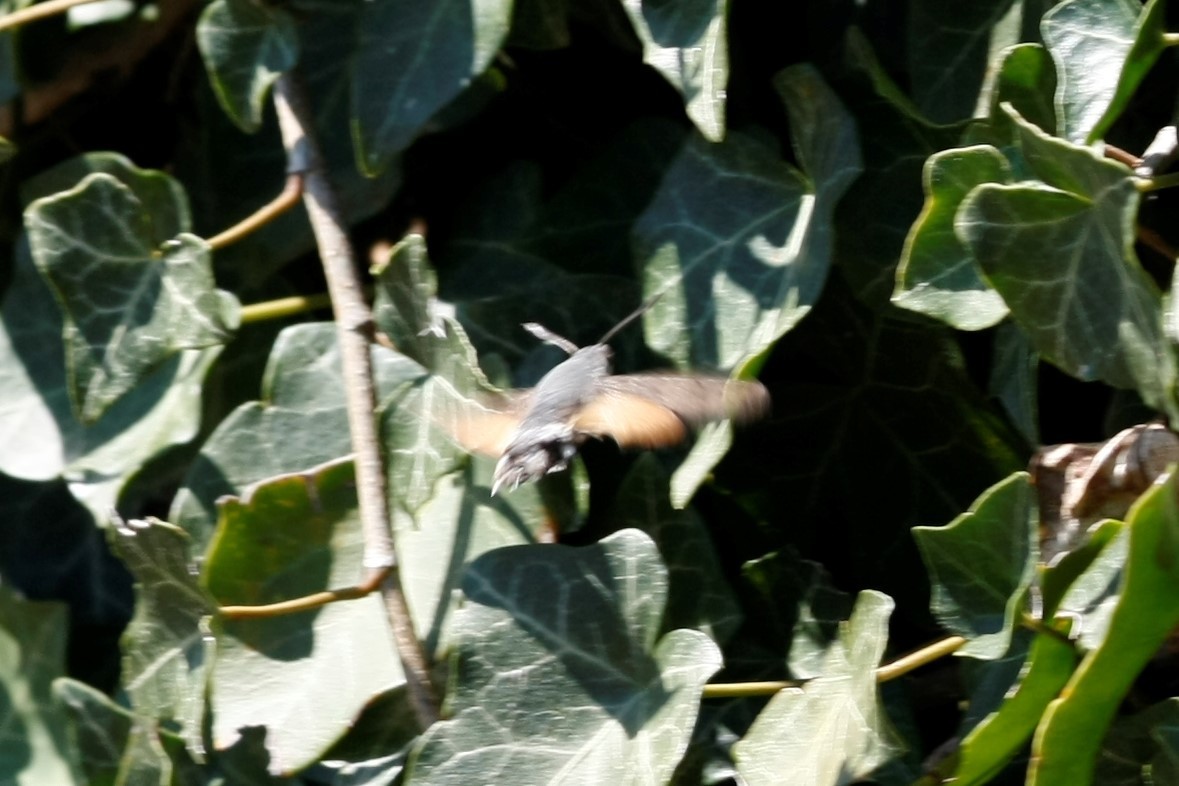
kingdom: Animalia
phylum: Arthropoda
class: Insecta
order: Lepidoptera
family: Sphingidae
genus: Macroglossum
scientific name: Macroglossum stellatarum
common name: Humming-bird hawk-moth
